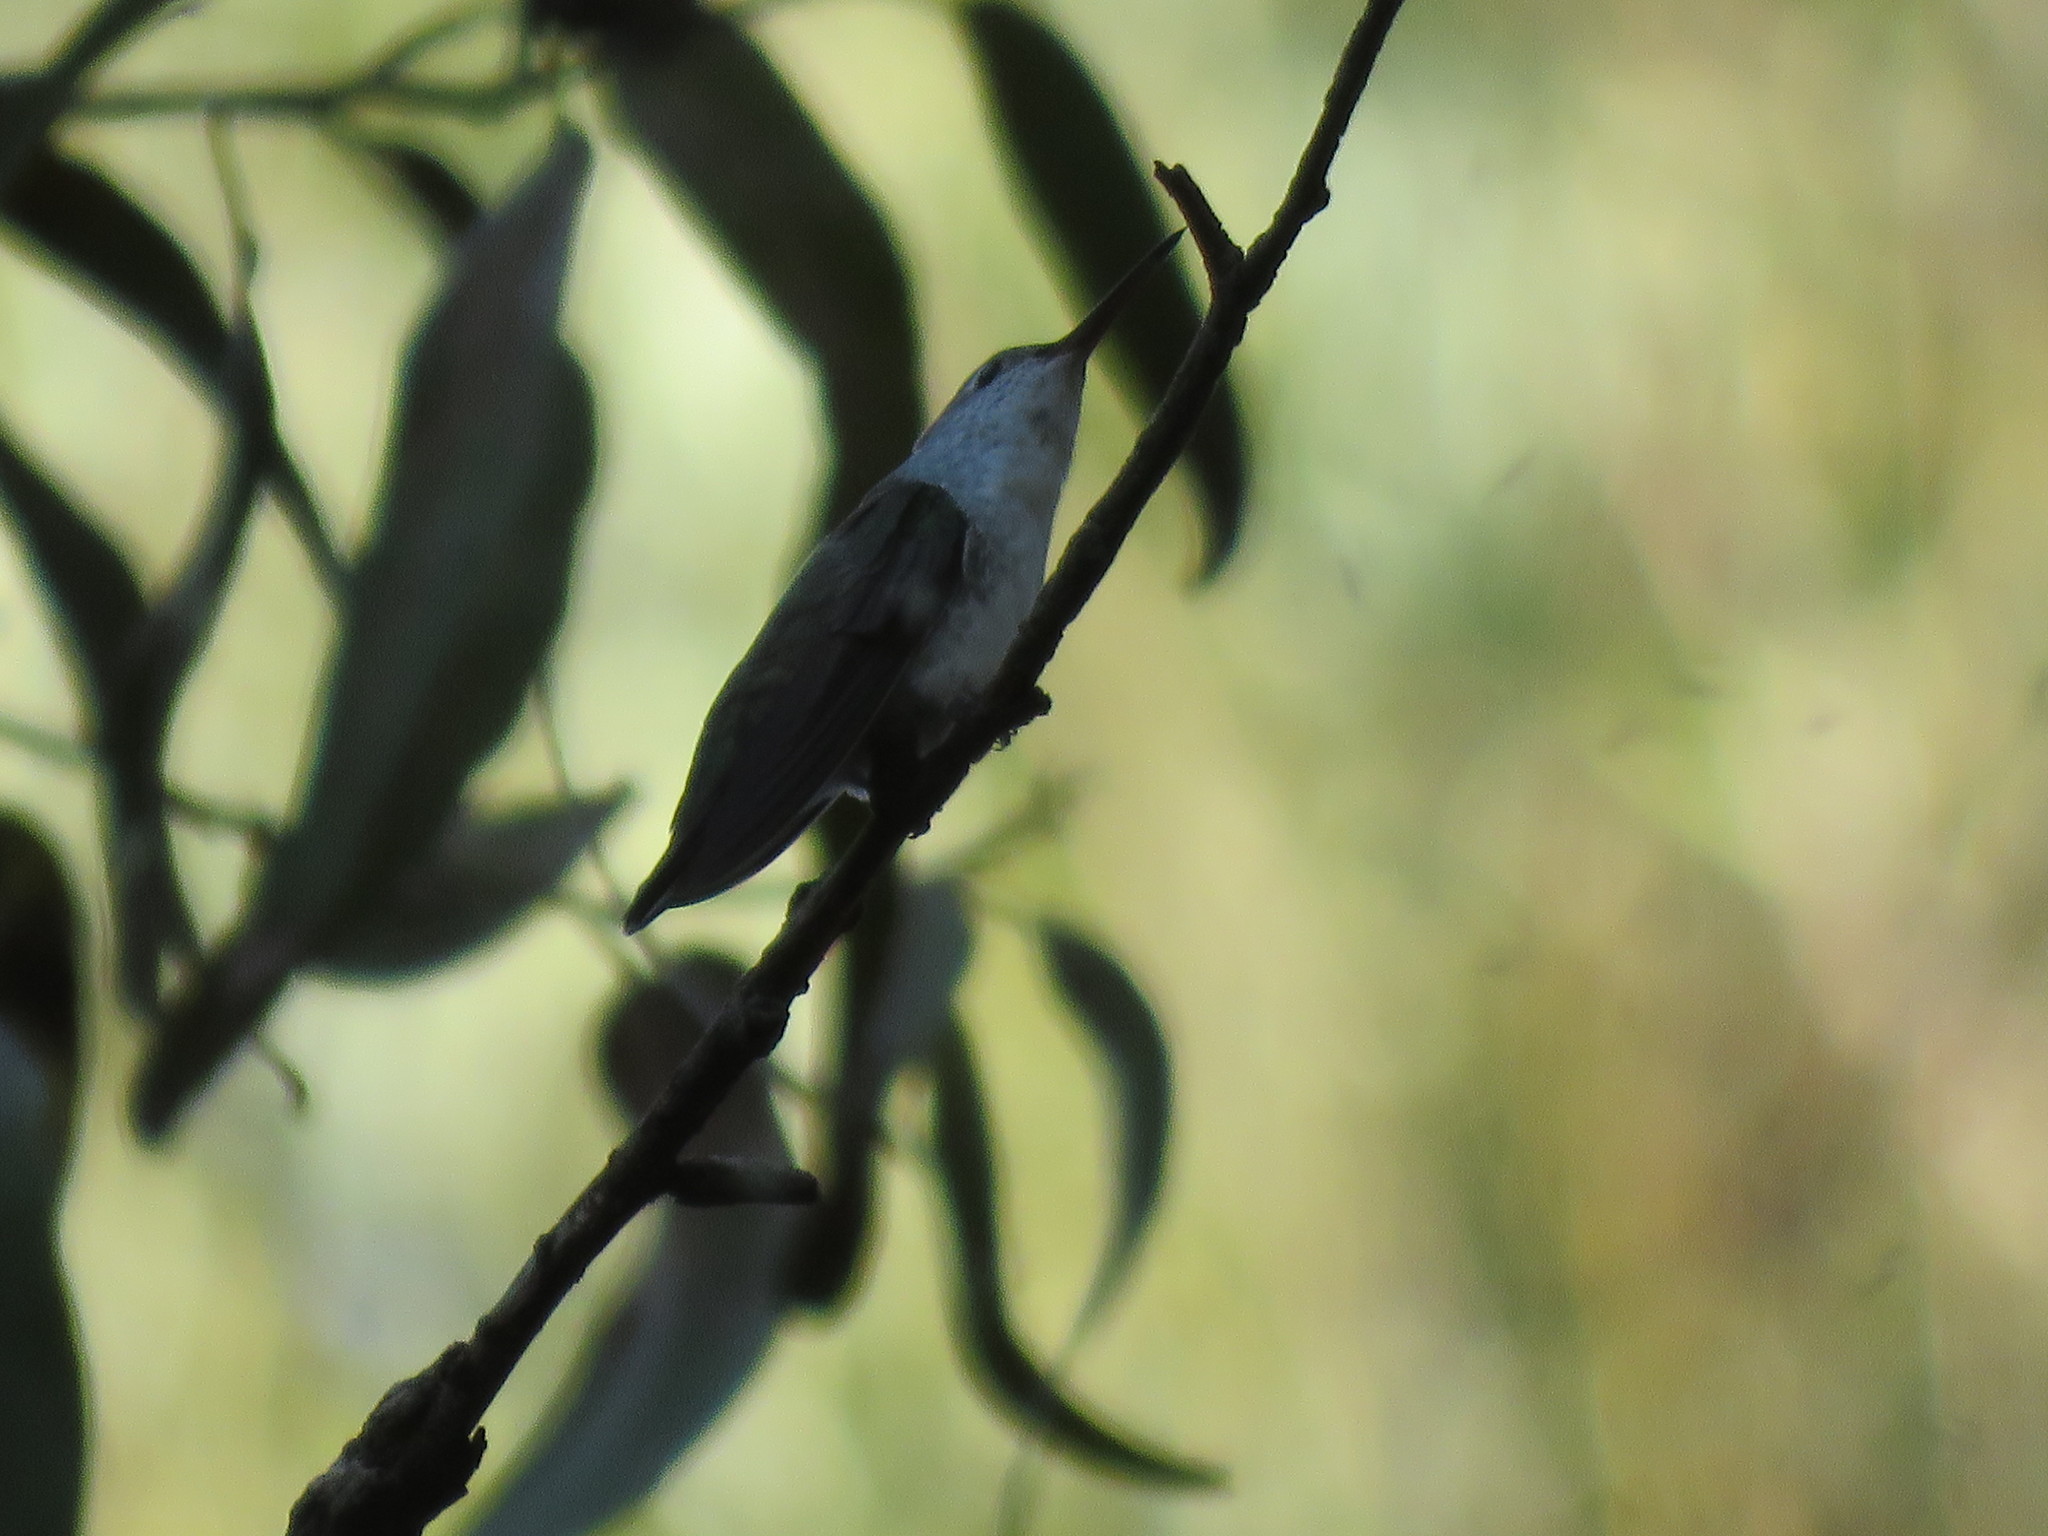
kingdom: Animalia
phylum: Chordata
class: Aves
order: Apodiformes
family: Trochilidae
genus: Elliotomyia
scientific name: Elliotomyia chionogaster
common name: White-bellied hummingbird
